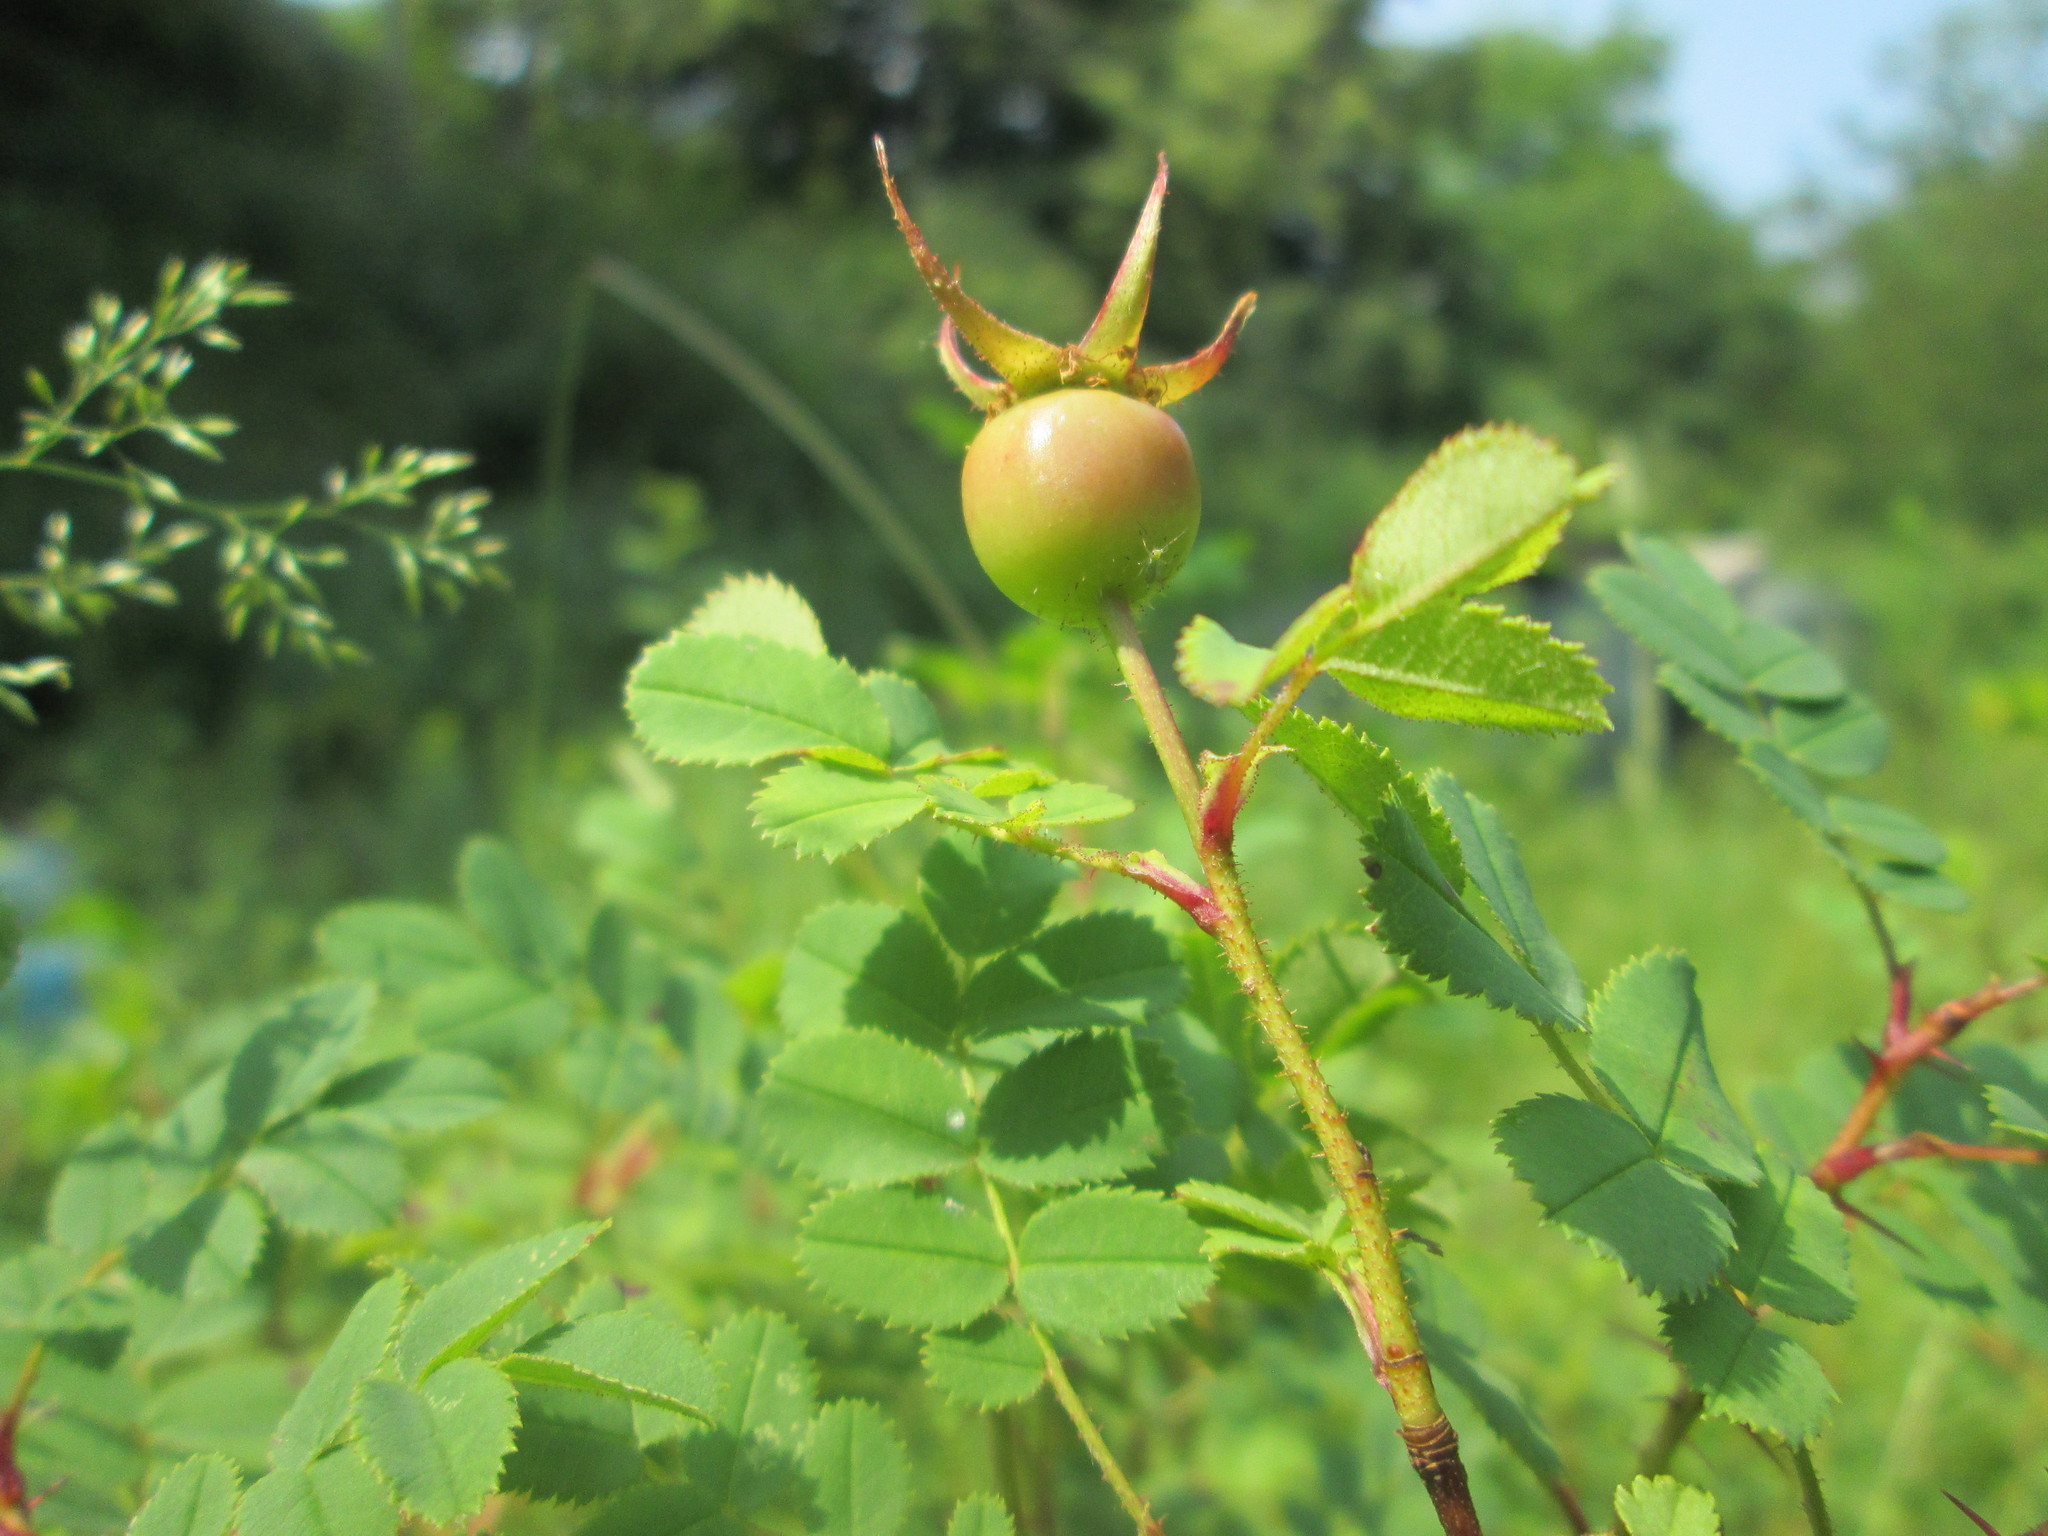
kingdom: Plantae
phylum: Tracheophyta
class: Magnoliopsida
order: Rosales
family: Rosaceae
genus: Rosa
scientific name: Rosa spinosissima
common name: Burnet rose
